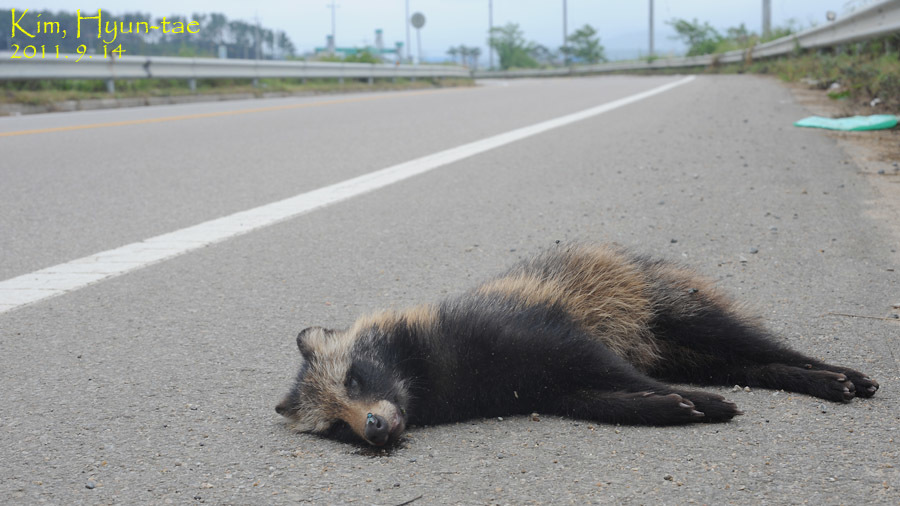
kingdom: Animalia
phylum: Chordata
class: Mammalia
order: Carnivora
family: Canidae
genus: Nyctereutes
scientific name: Nyctereutes procyonoides
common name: Raccoon dog
